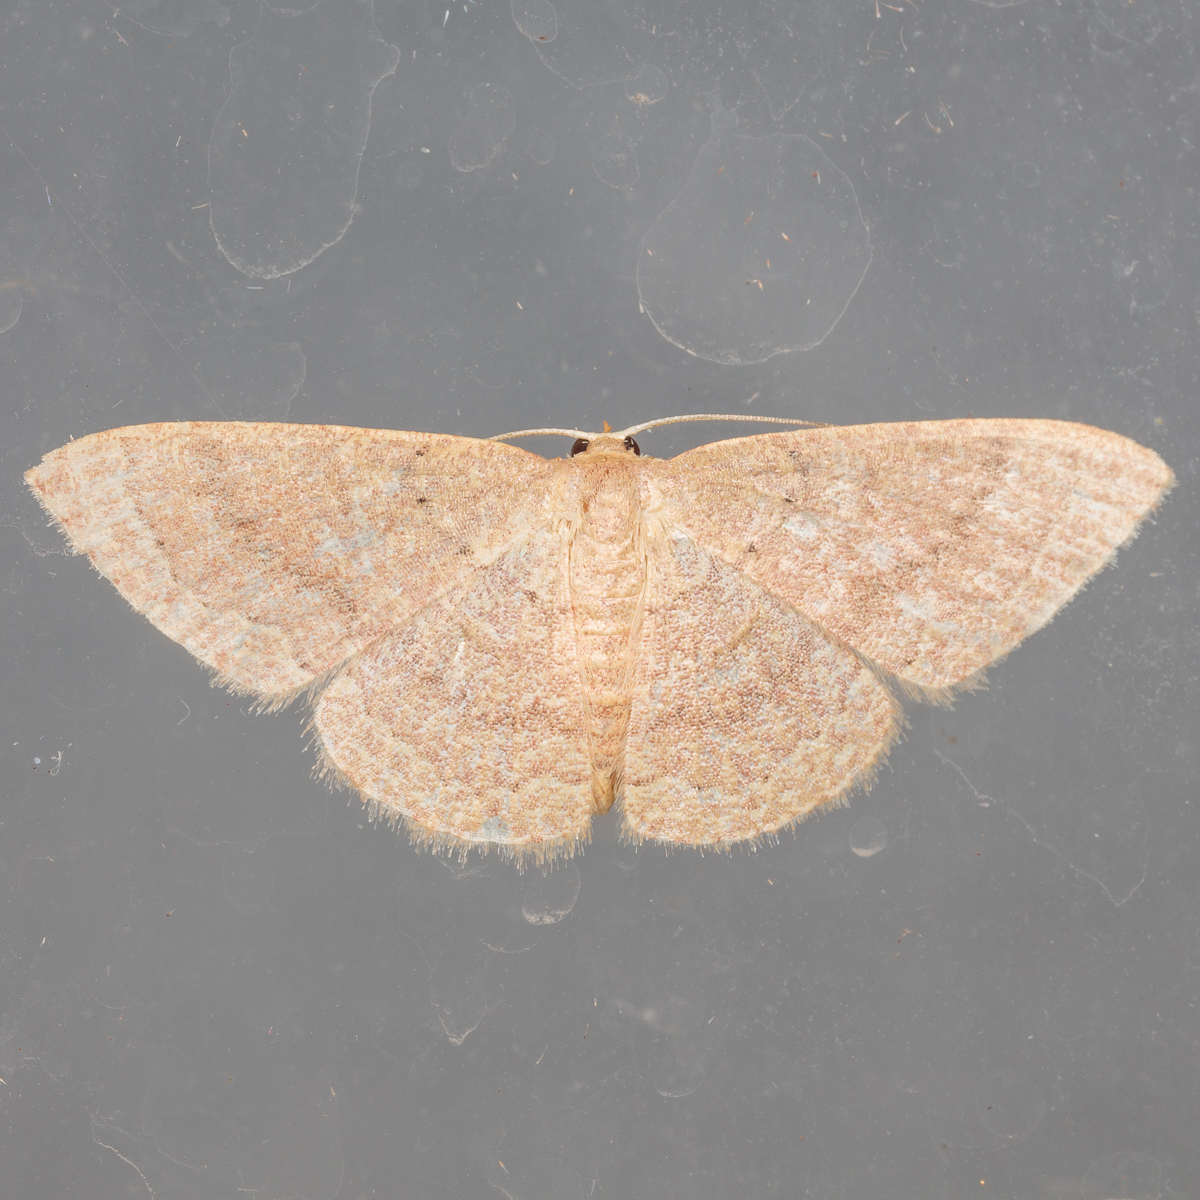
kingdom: Animalia
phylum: Arthropoda
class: Insecta
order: Lepidoptera
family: Geometridae
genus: Pleuroprucha
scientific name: Pleuroprucha insulsaria
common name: Common tan wave
